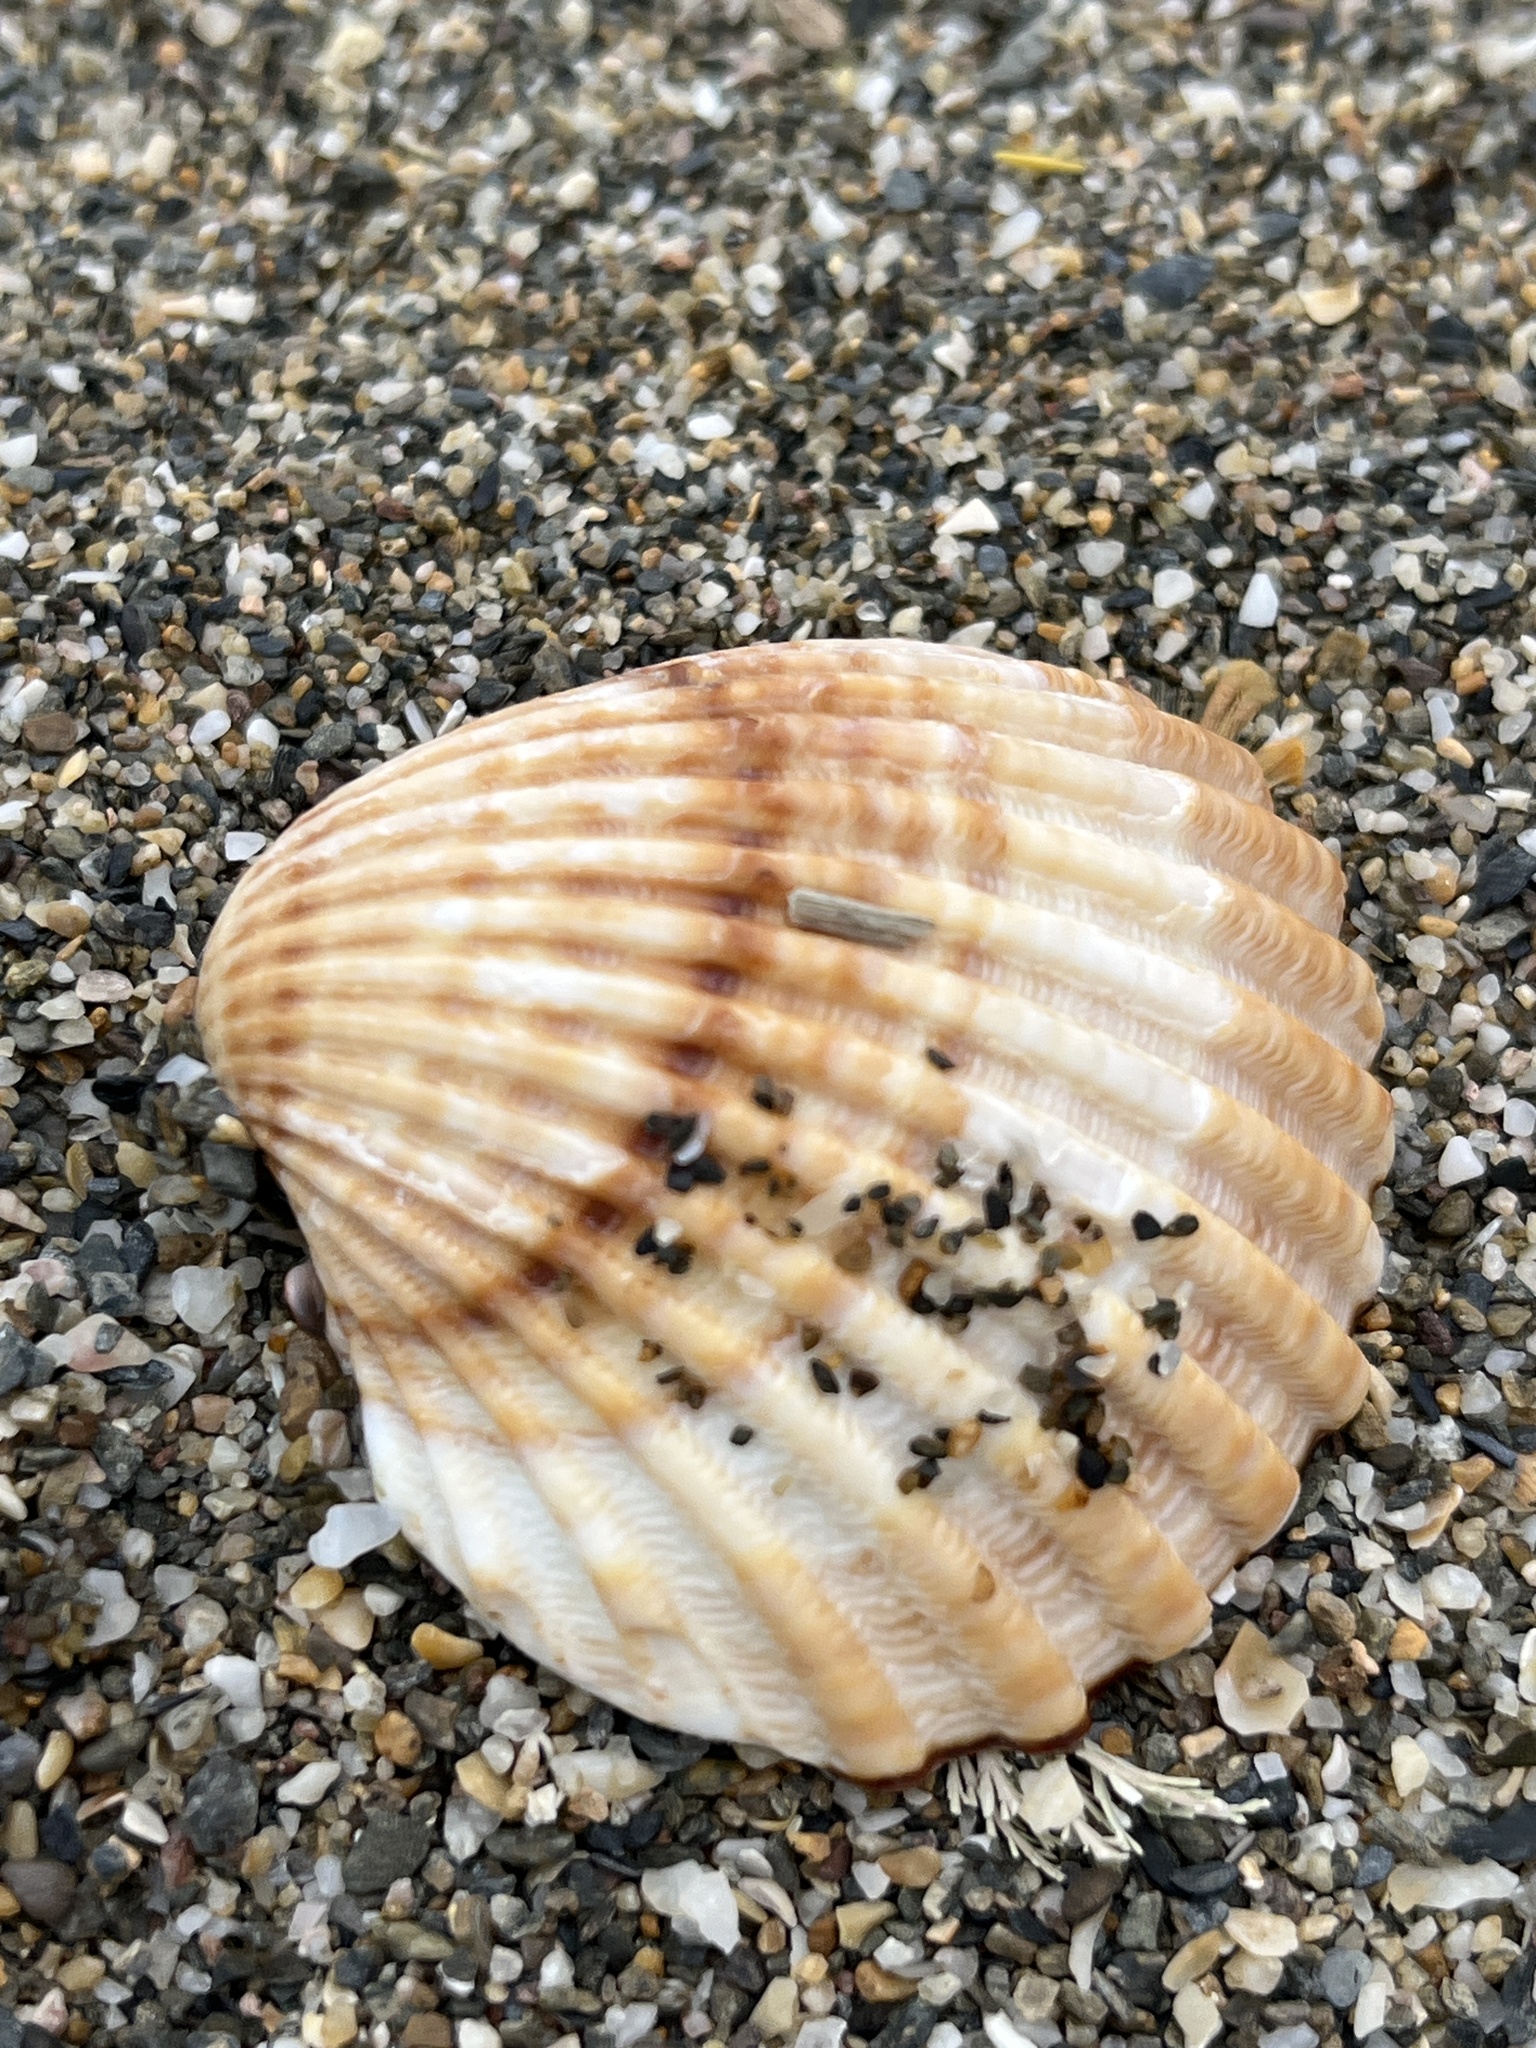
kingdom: Animalia
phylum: Mollusca
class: Bivalvia
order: Cardiida
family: Cardiidae
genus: Acanthocardia
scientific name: Acanthocardia tuberculata
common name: Rough cockle
